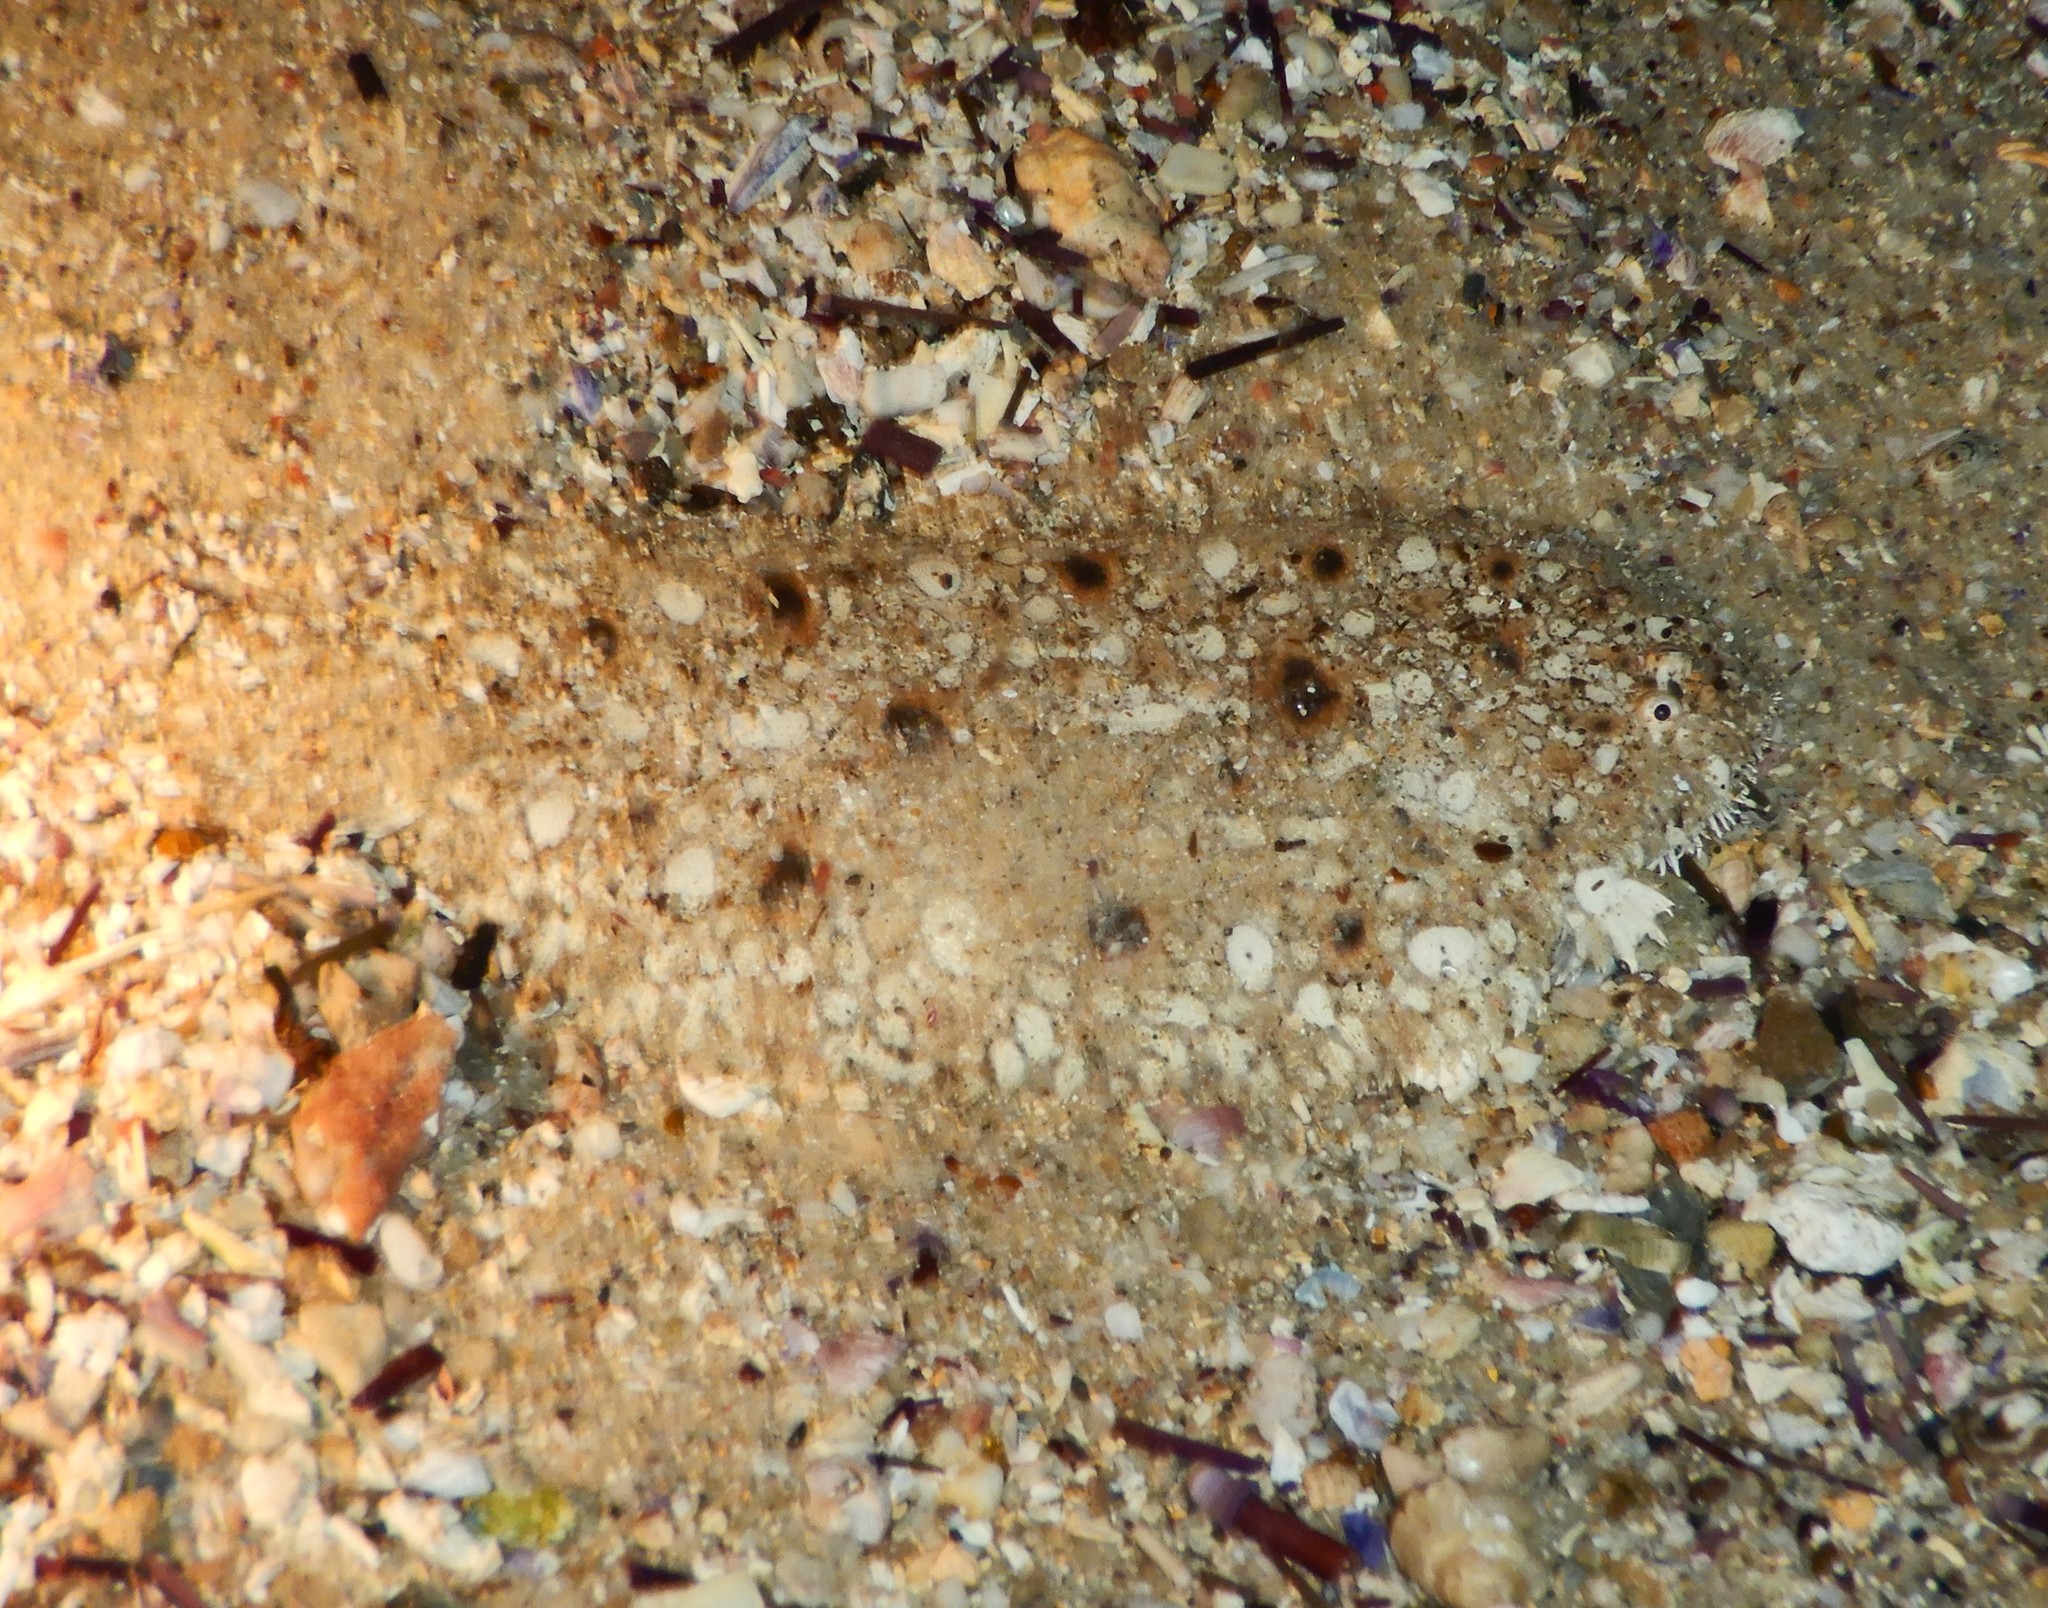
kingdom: Animalia
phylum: Chordata
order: Pleuronectiformes
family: Soleidae
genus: Pardachirus
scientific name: Pardachirus hedleyi
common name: Southern peacock sole
